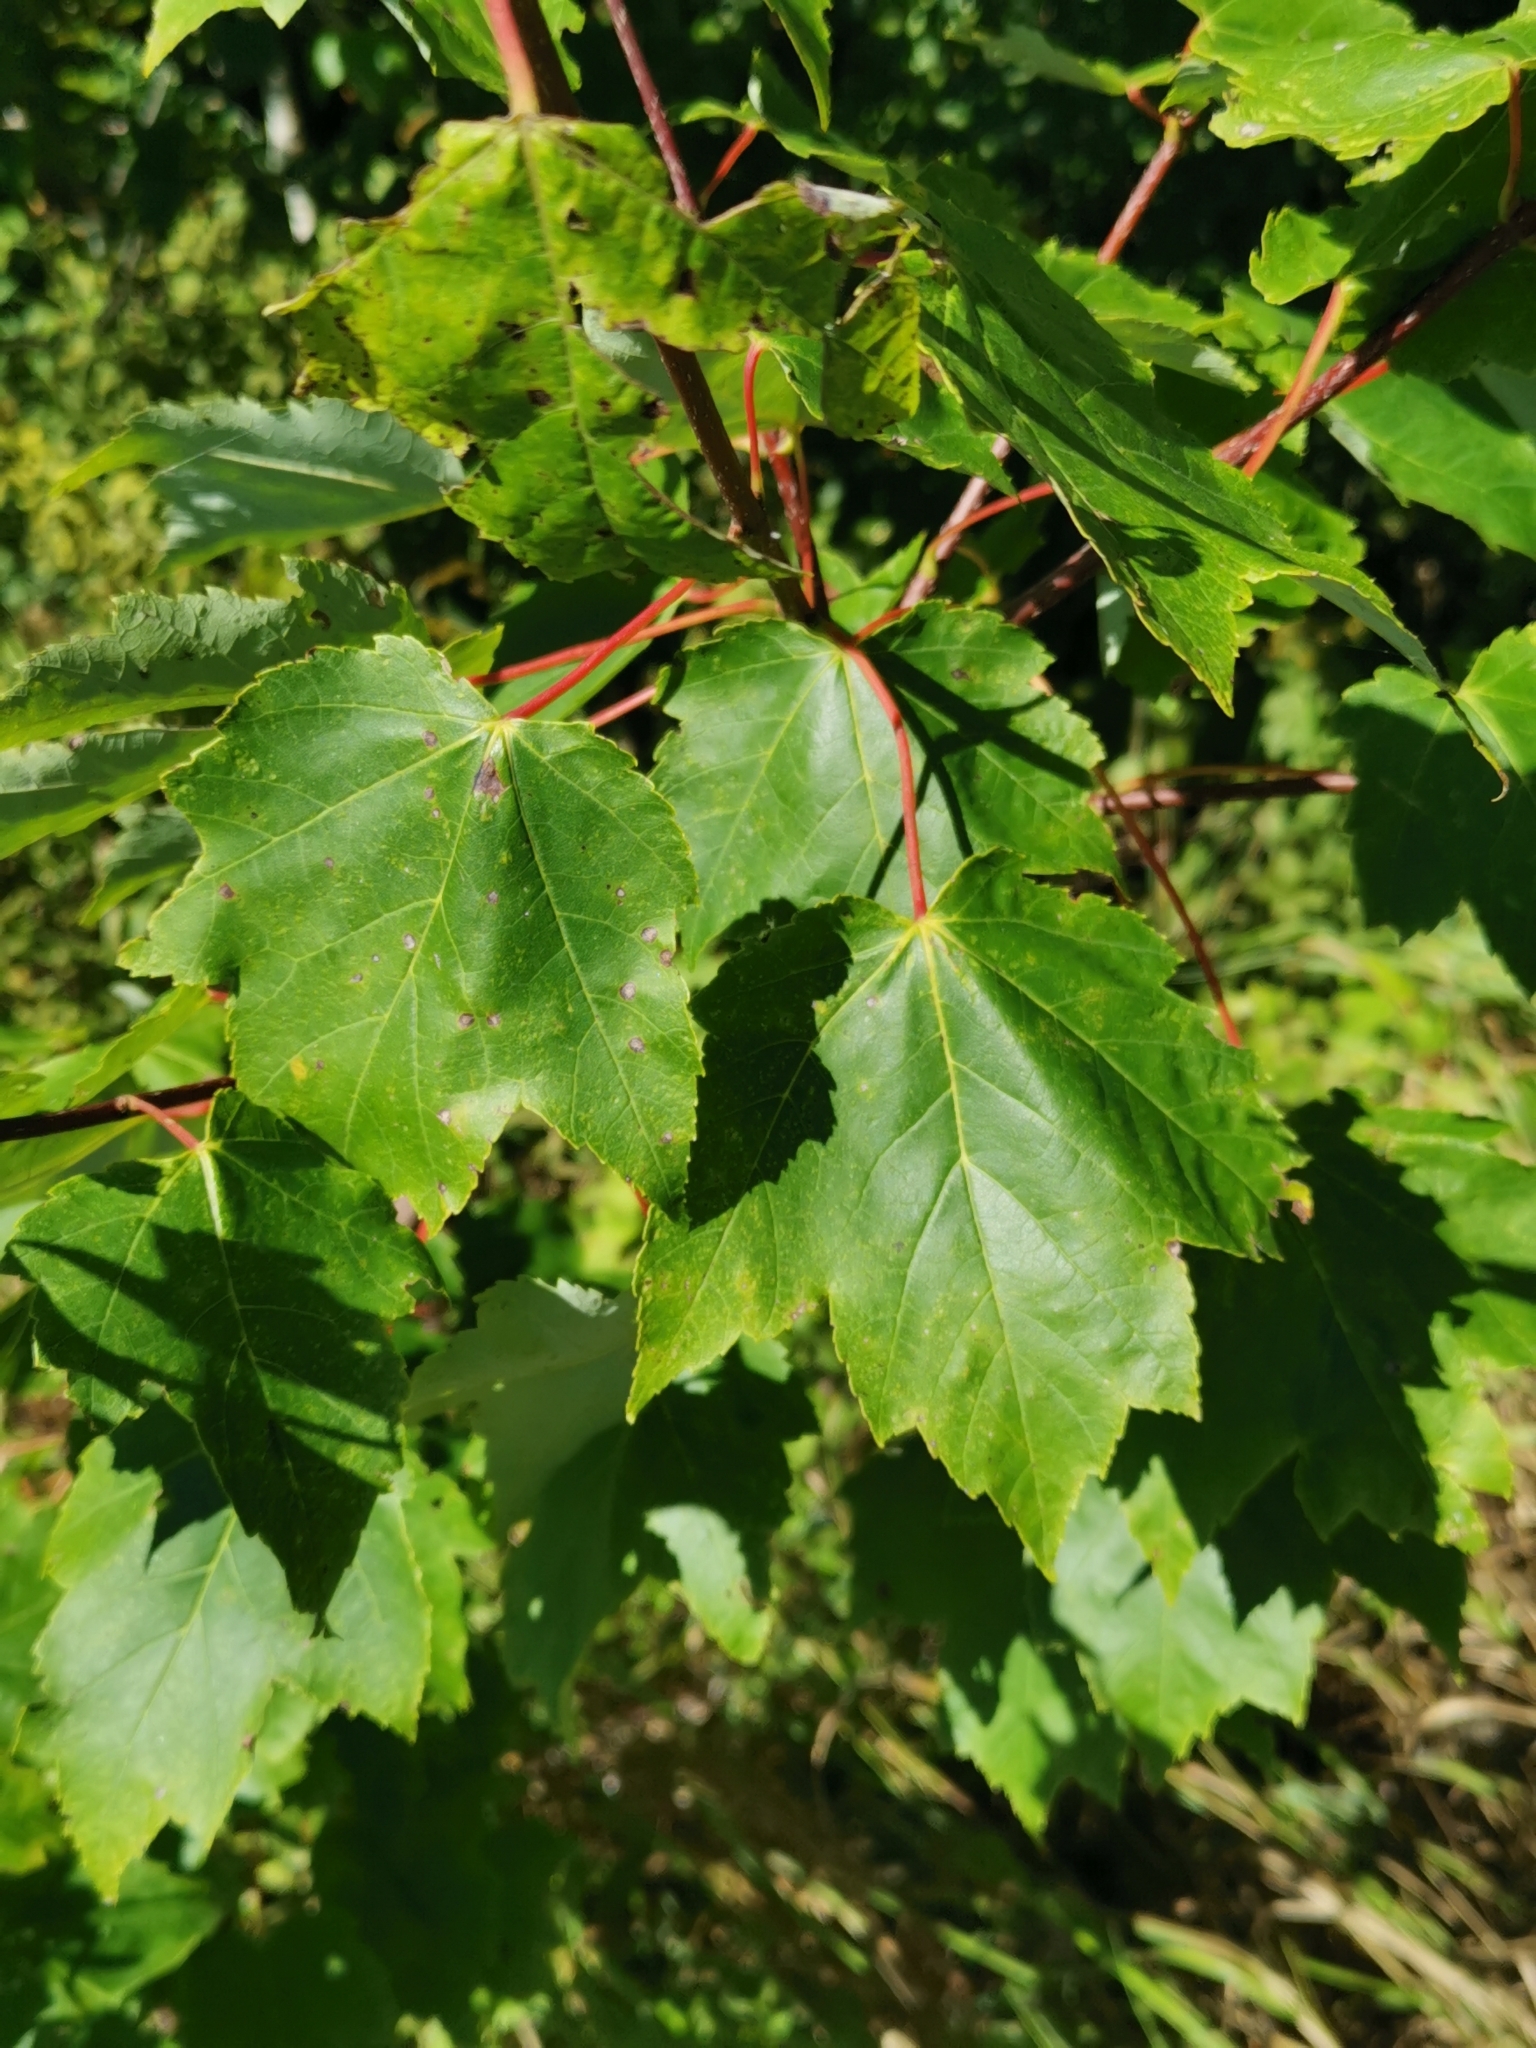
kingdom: Plantae
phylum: Tracheophyta
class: Magnoliopsida
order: Sapindales
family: Sapindaceae
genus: Acer
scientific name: Acer rubrum
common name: Red maple
